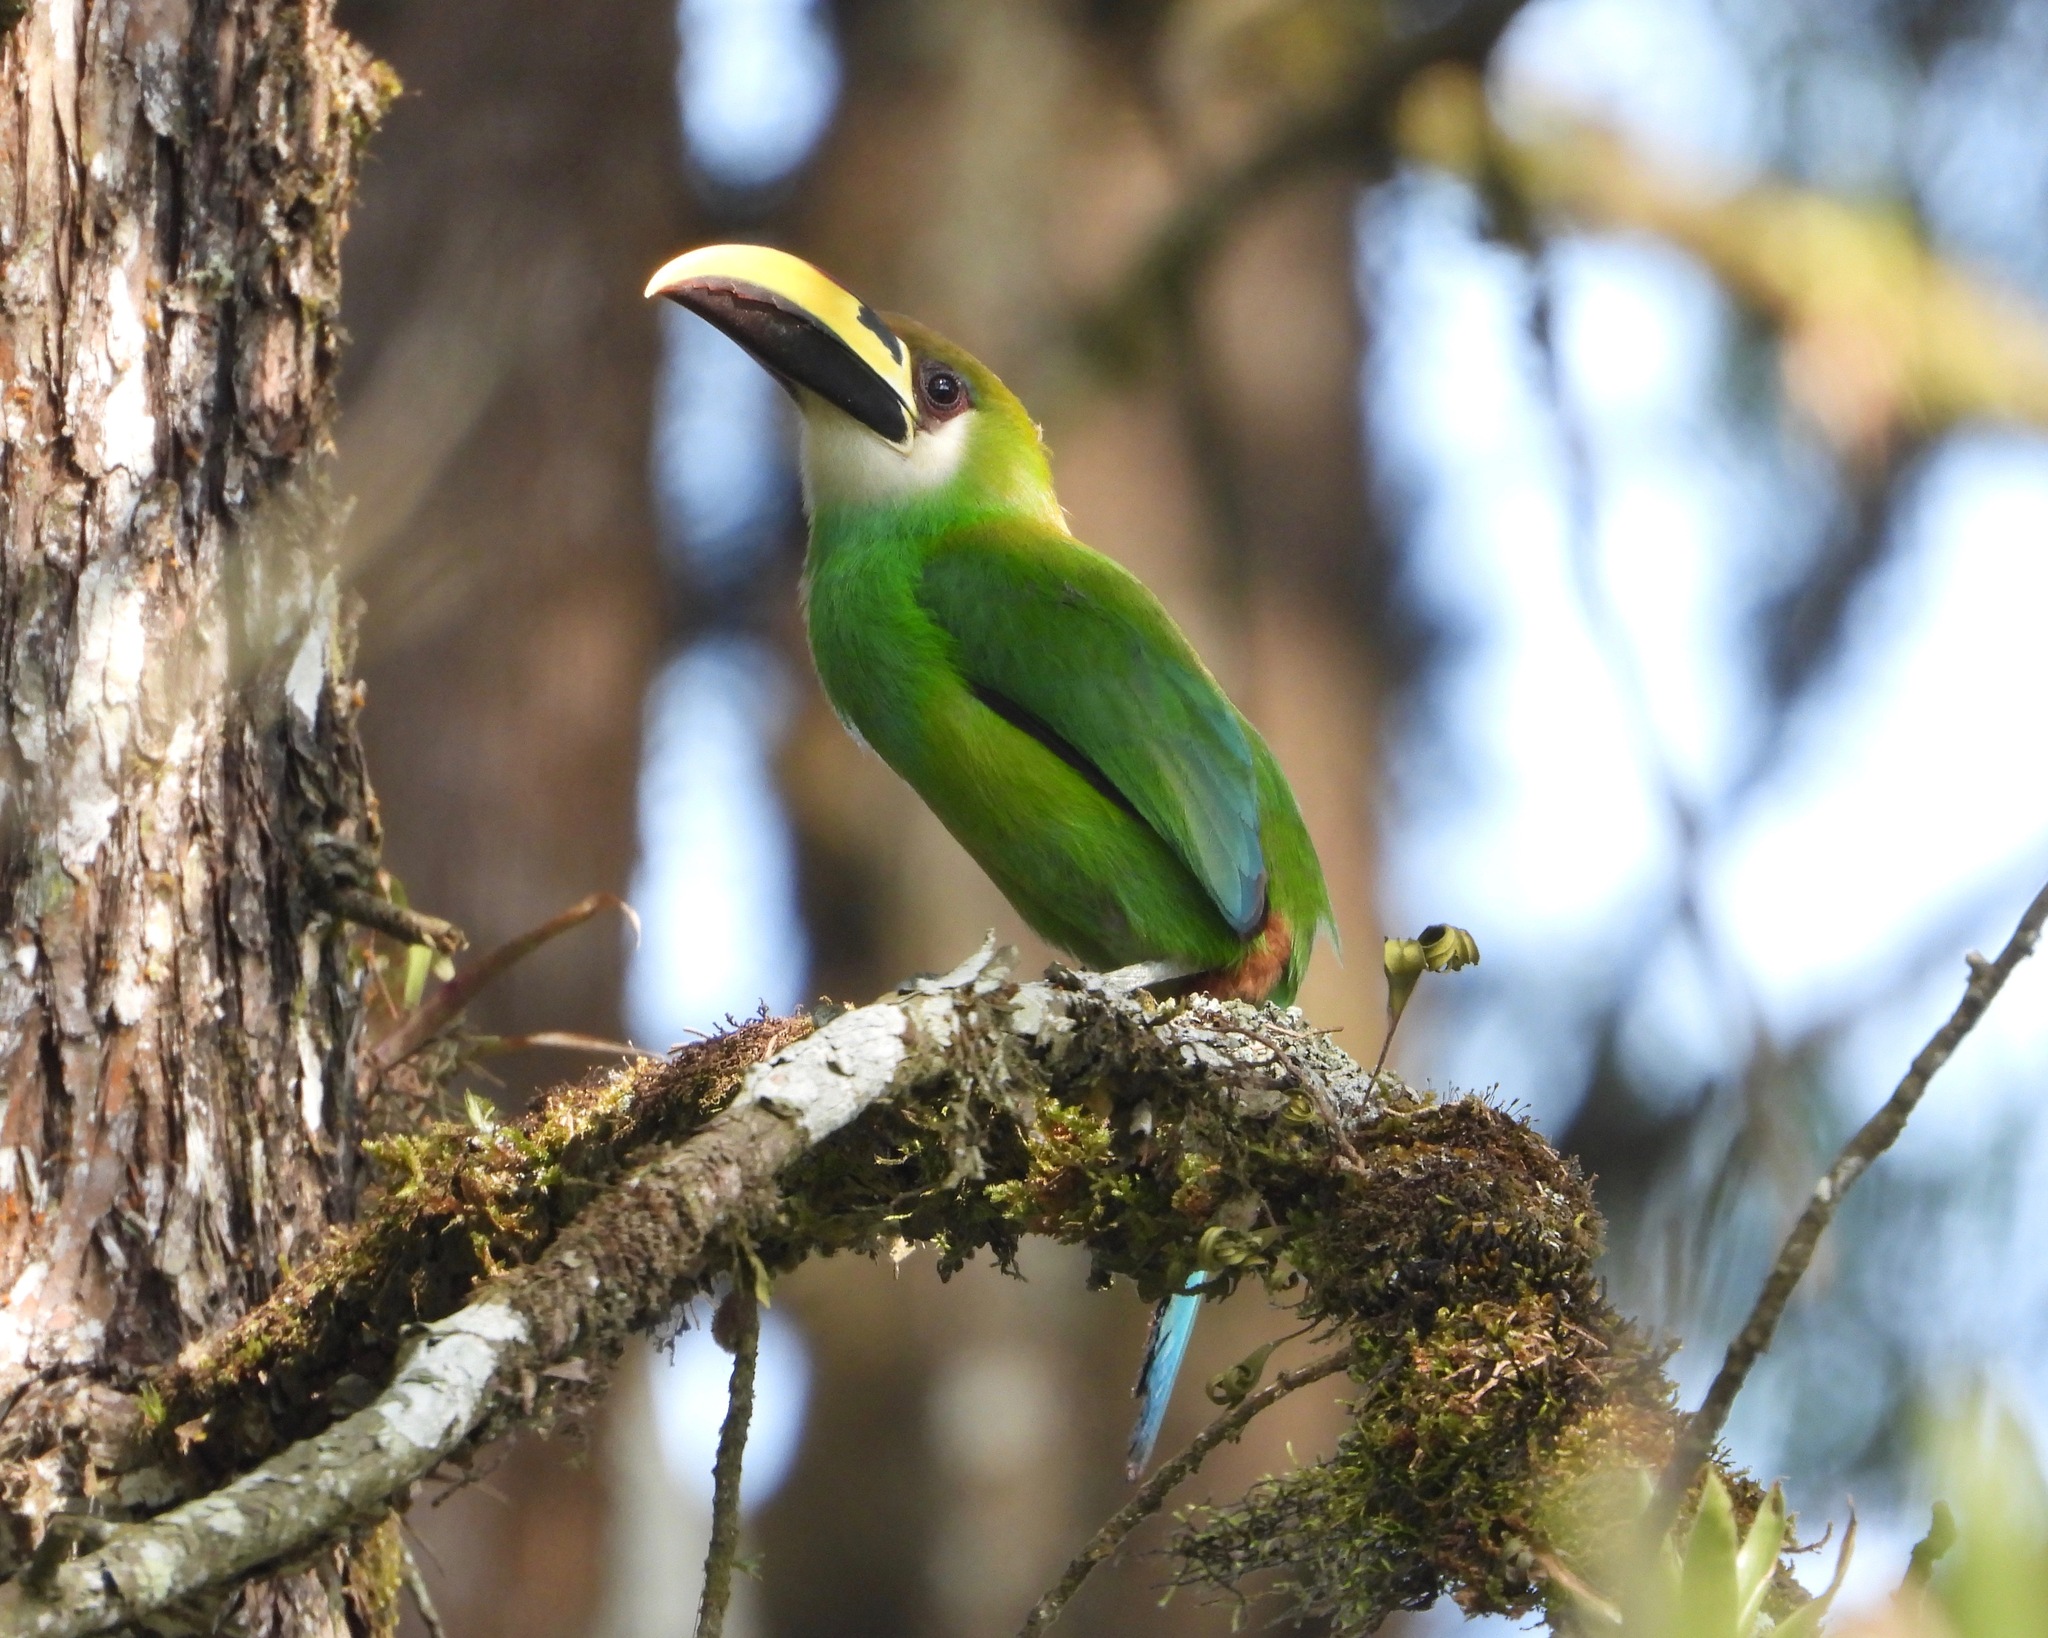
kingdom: Animalia
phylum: Chordata
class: Aves
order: Piciformes
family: Ramphastidae
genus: Aulacorhynchus
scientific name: Aulacorhynchus prasinus
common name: Emerald toucanet
